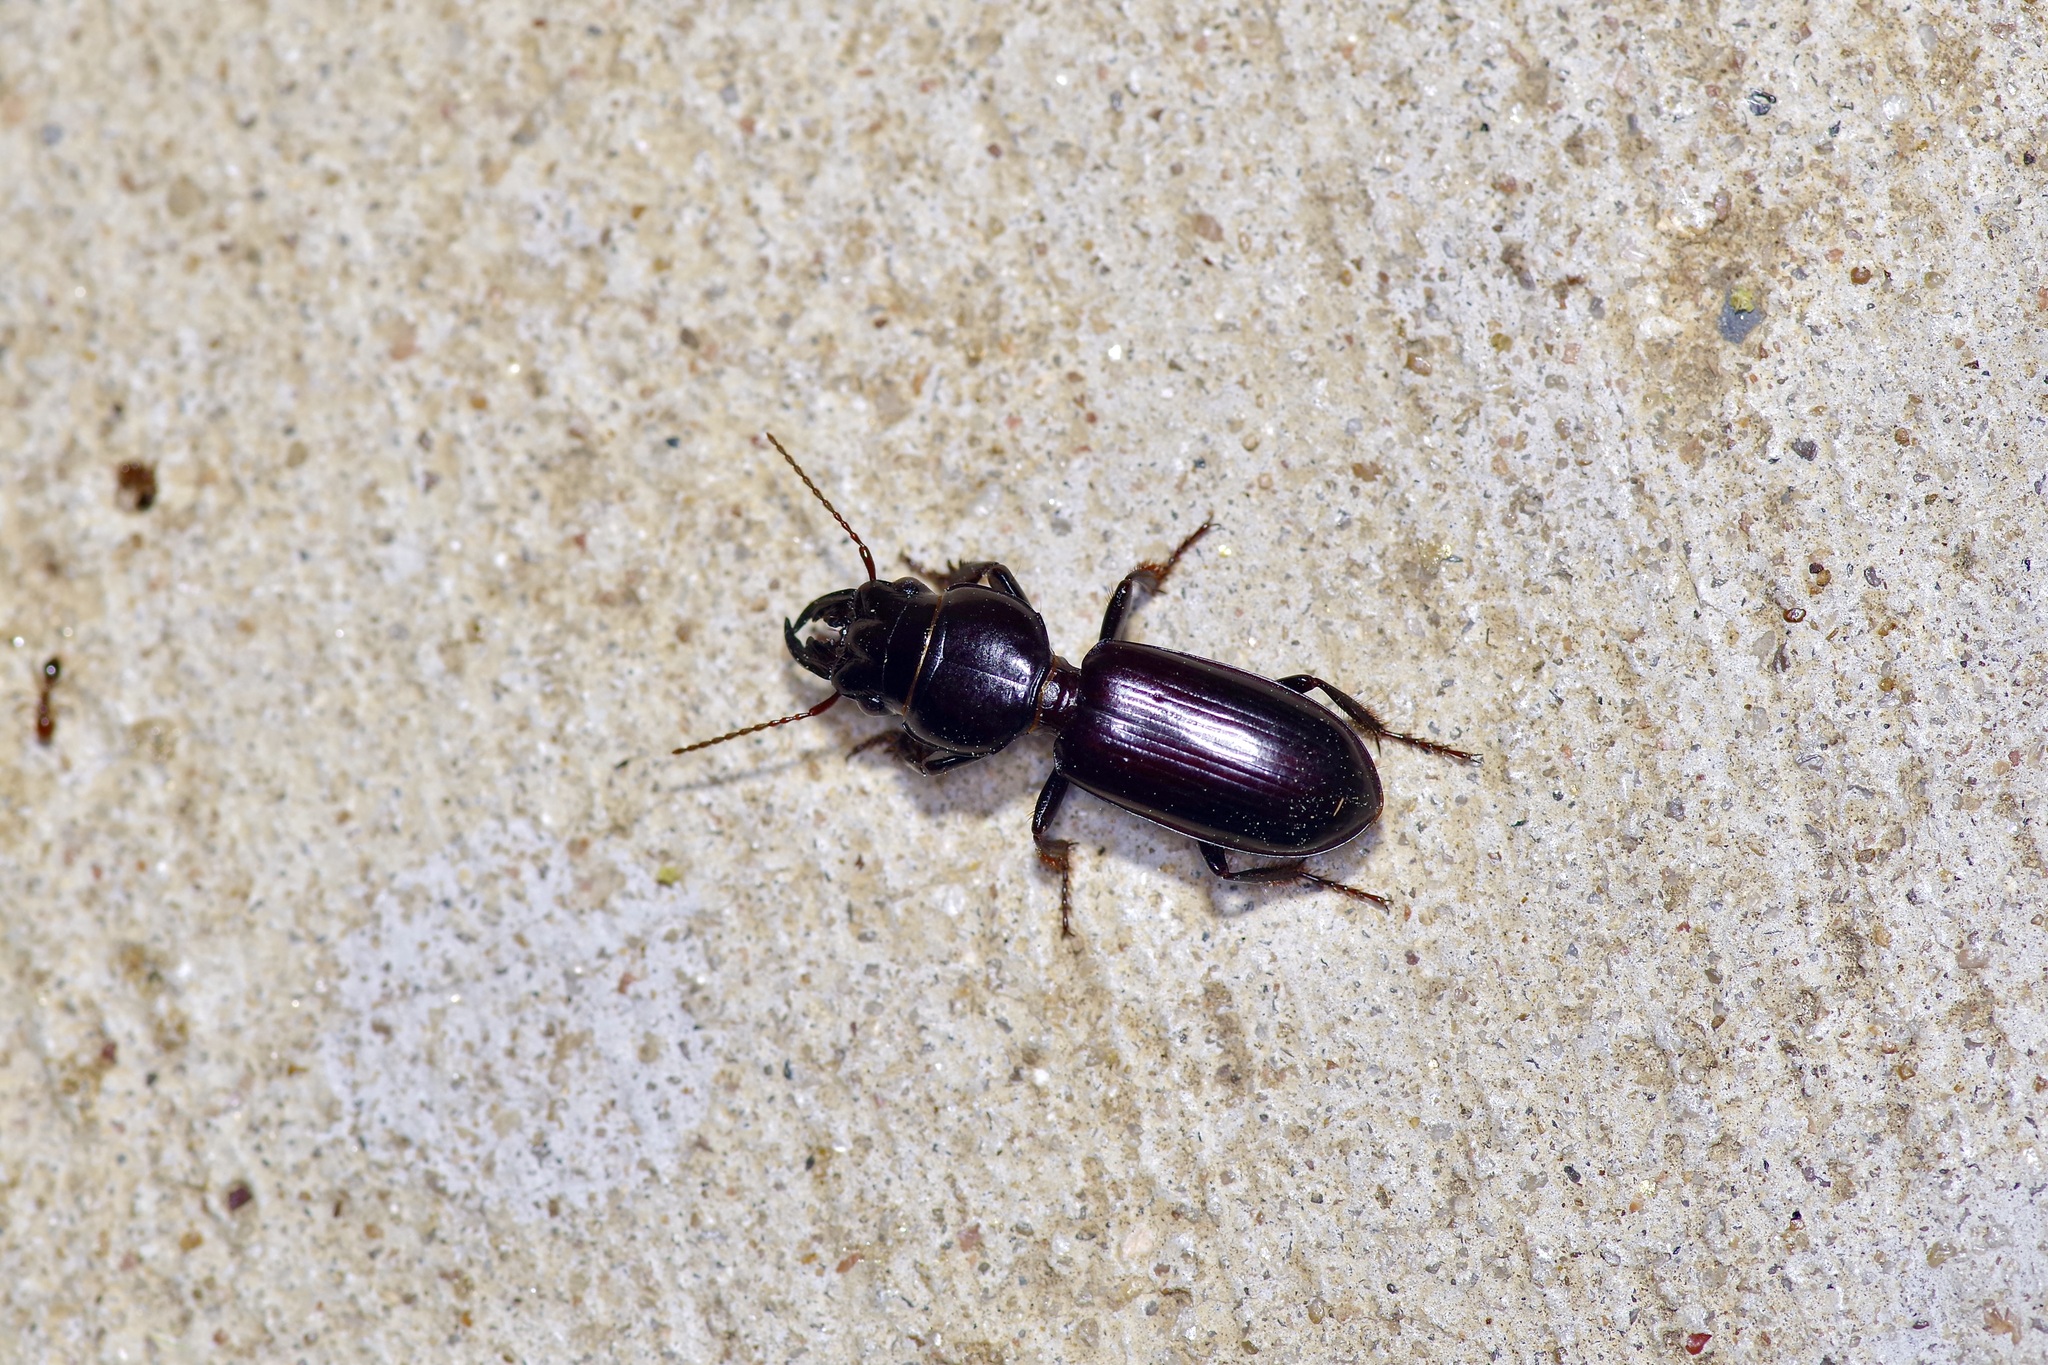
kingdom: Animalia
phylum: Arthropoda
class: Insecta
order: Coleoptera
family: Carabidae
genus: Scarites
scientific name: Scarites subterraneus
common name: Big-headed ground beetle
